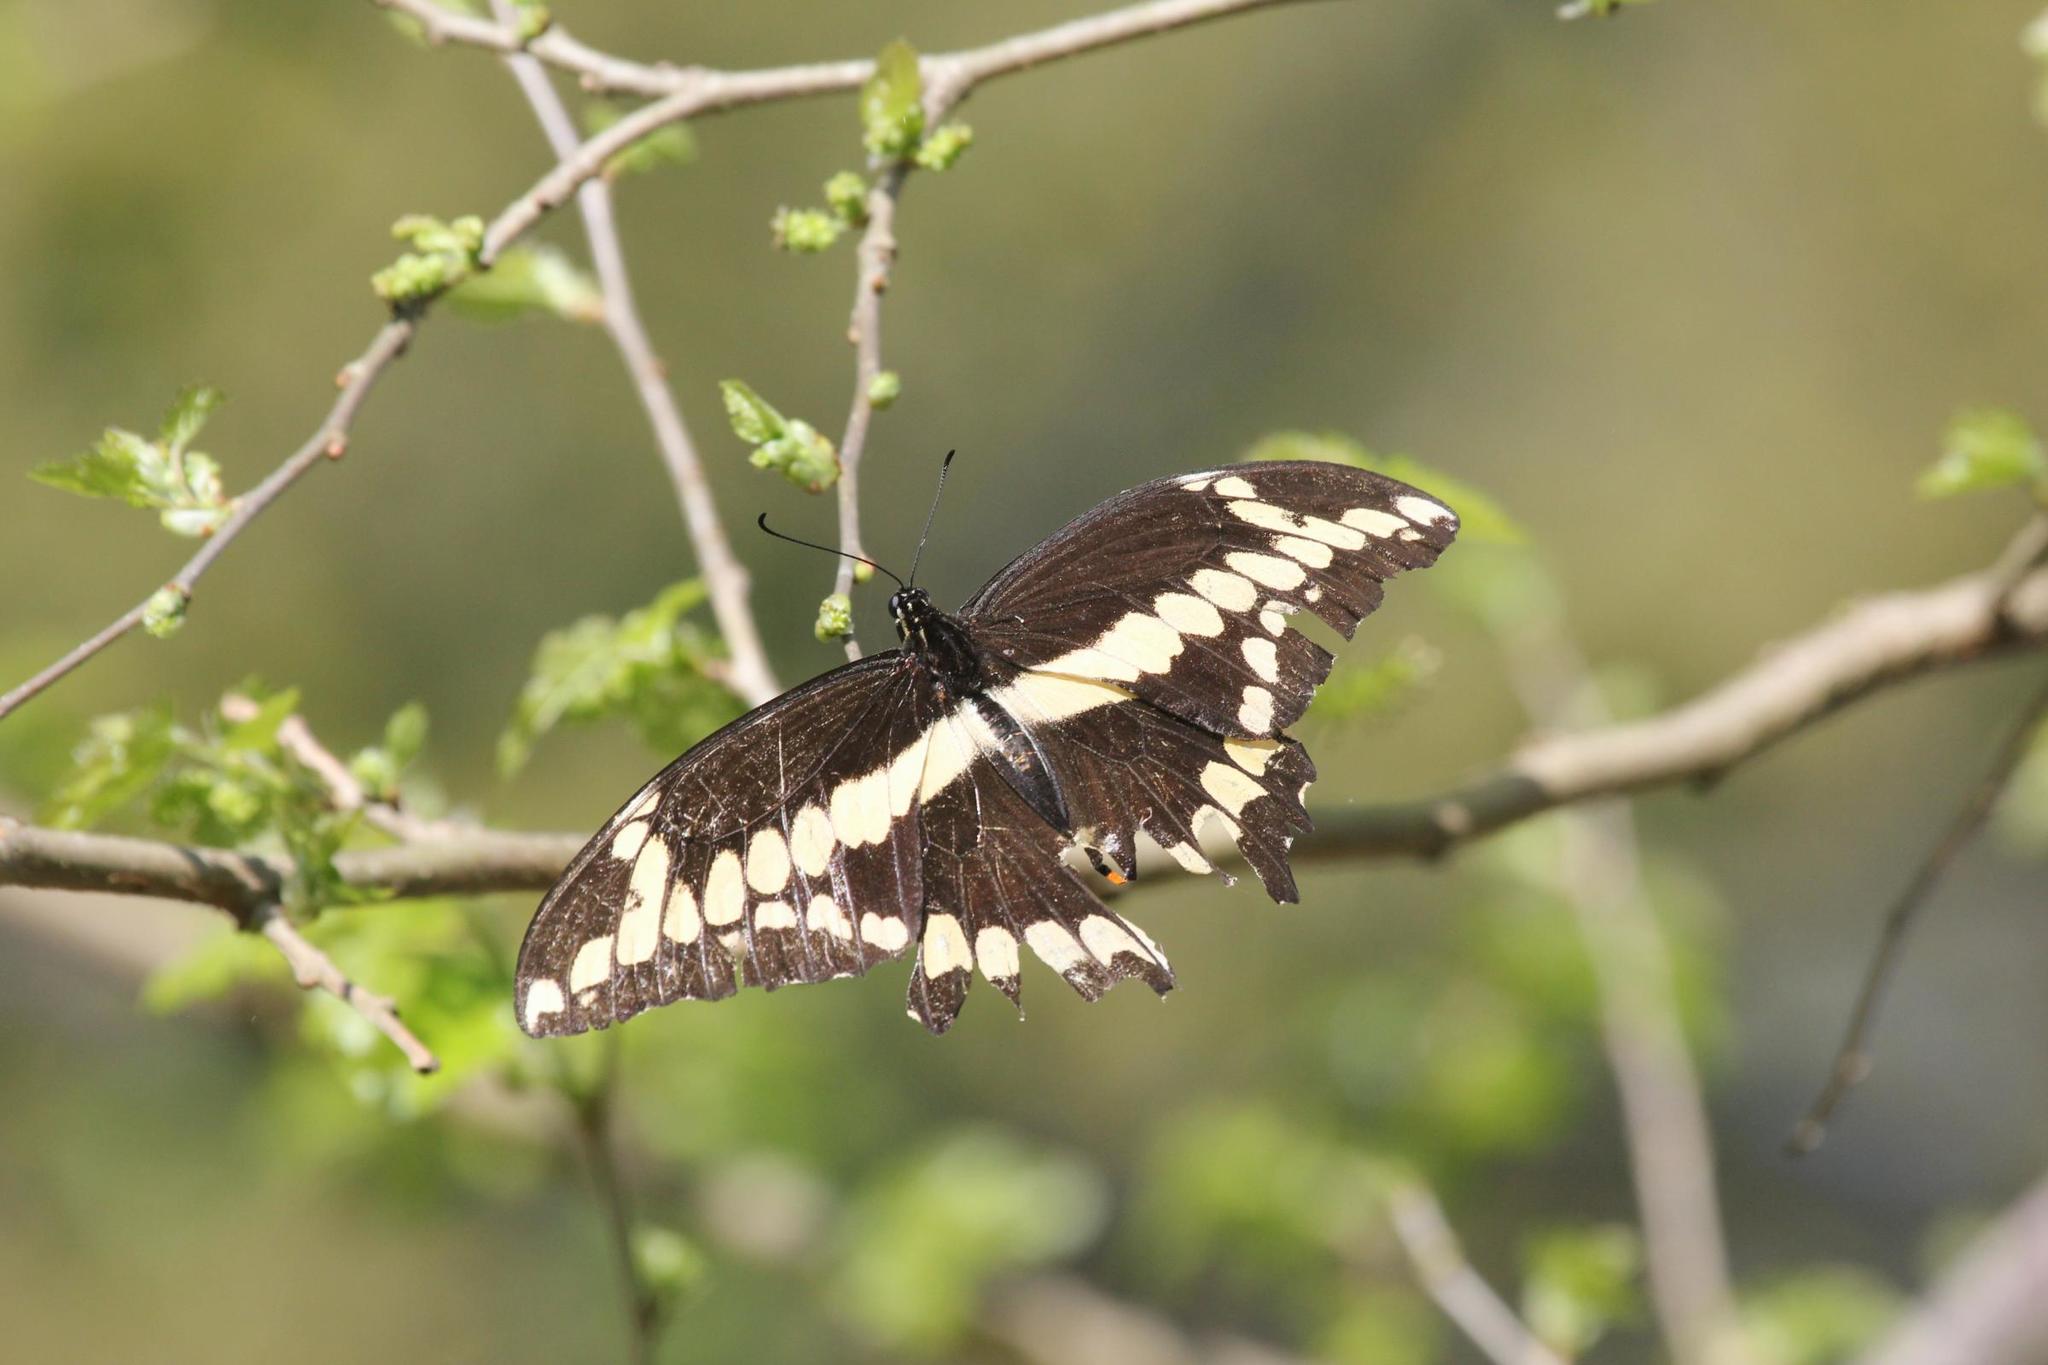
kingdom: Animalia
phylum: Arthropoda
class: Insecta
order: Lepidoptera
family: Papilionidae
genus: Papilio
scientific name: Papilio cresphontes
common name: Giant swallowtail
